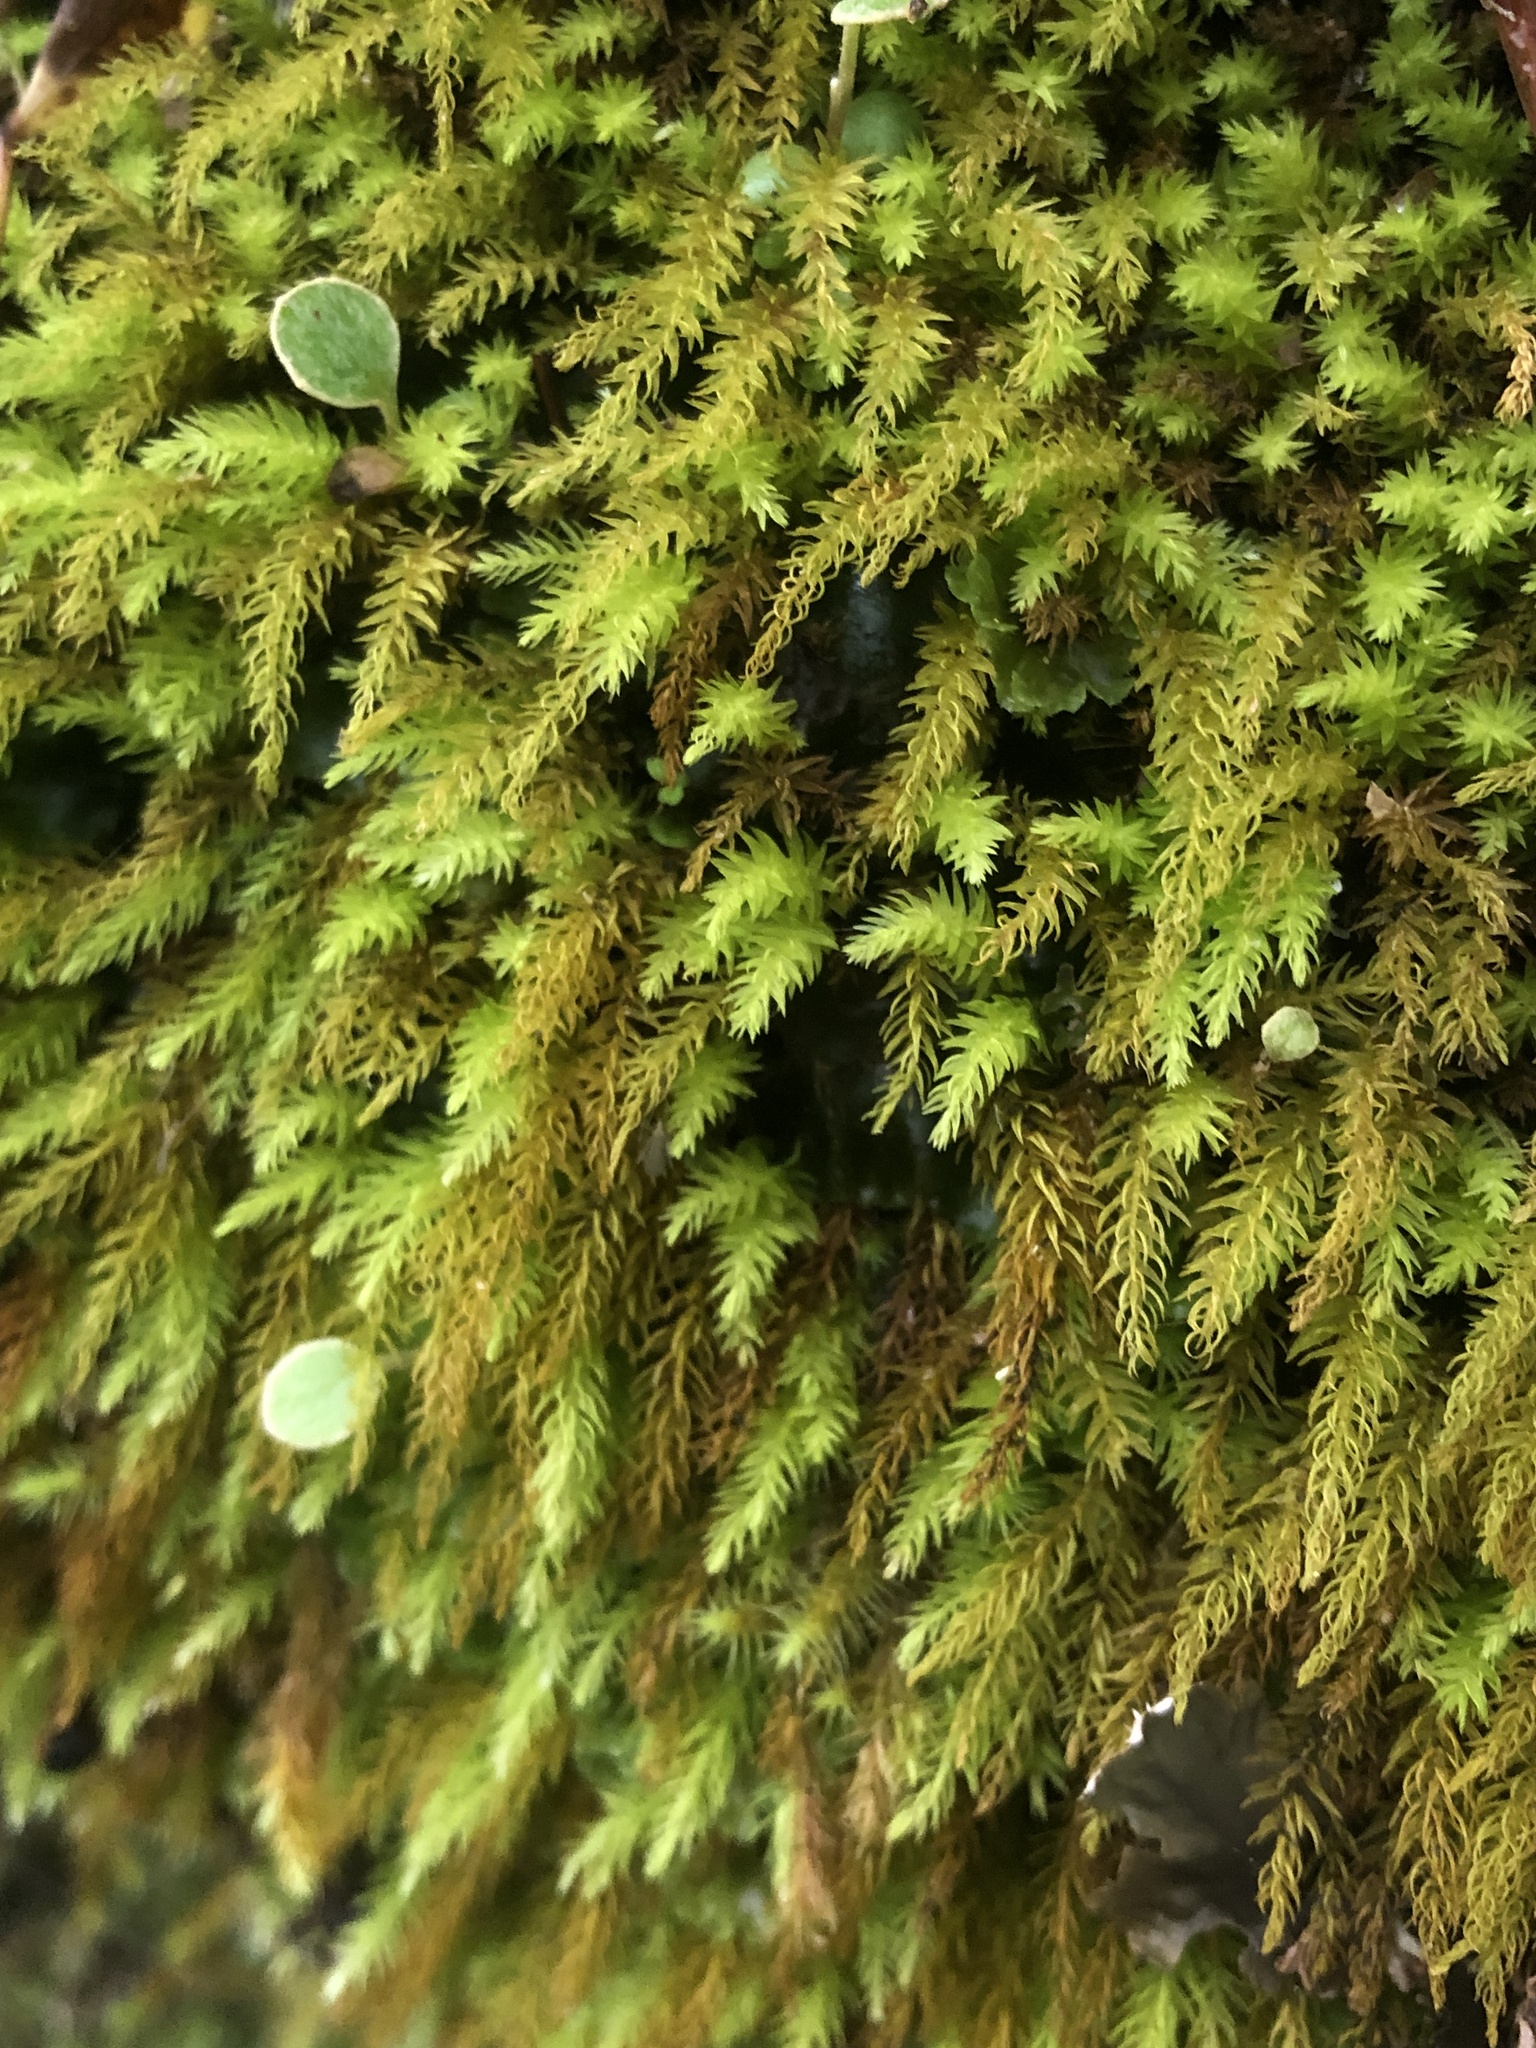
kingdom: Plantae
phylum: Bryophyta
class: Bryopsida
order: Aulacomniales
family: Aulacomniaceae
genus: Hymenodontopsis
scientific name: Hymenodontopsis mnioides
